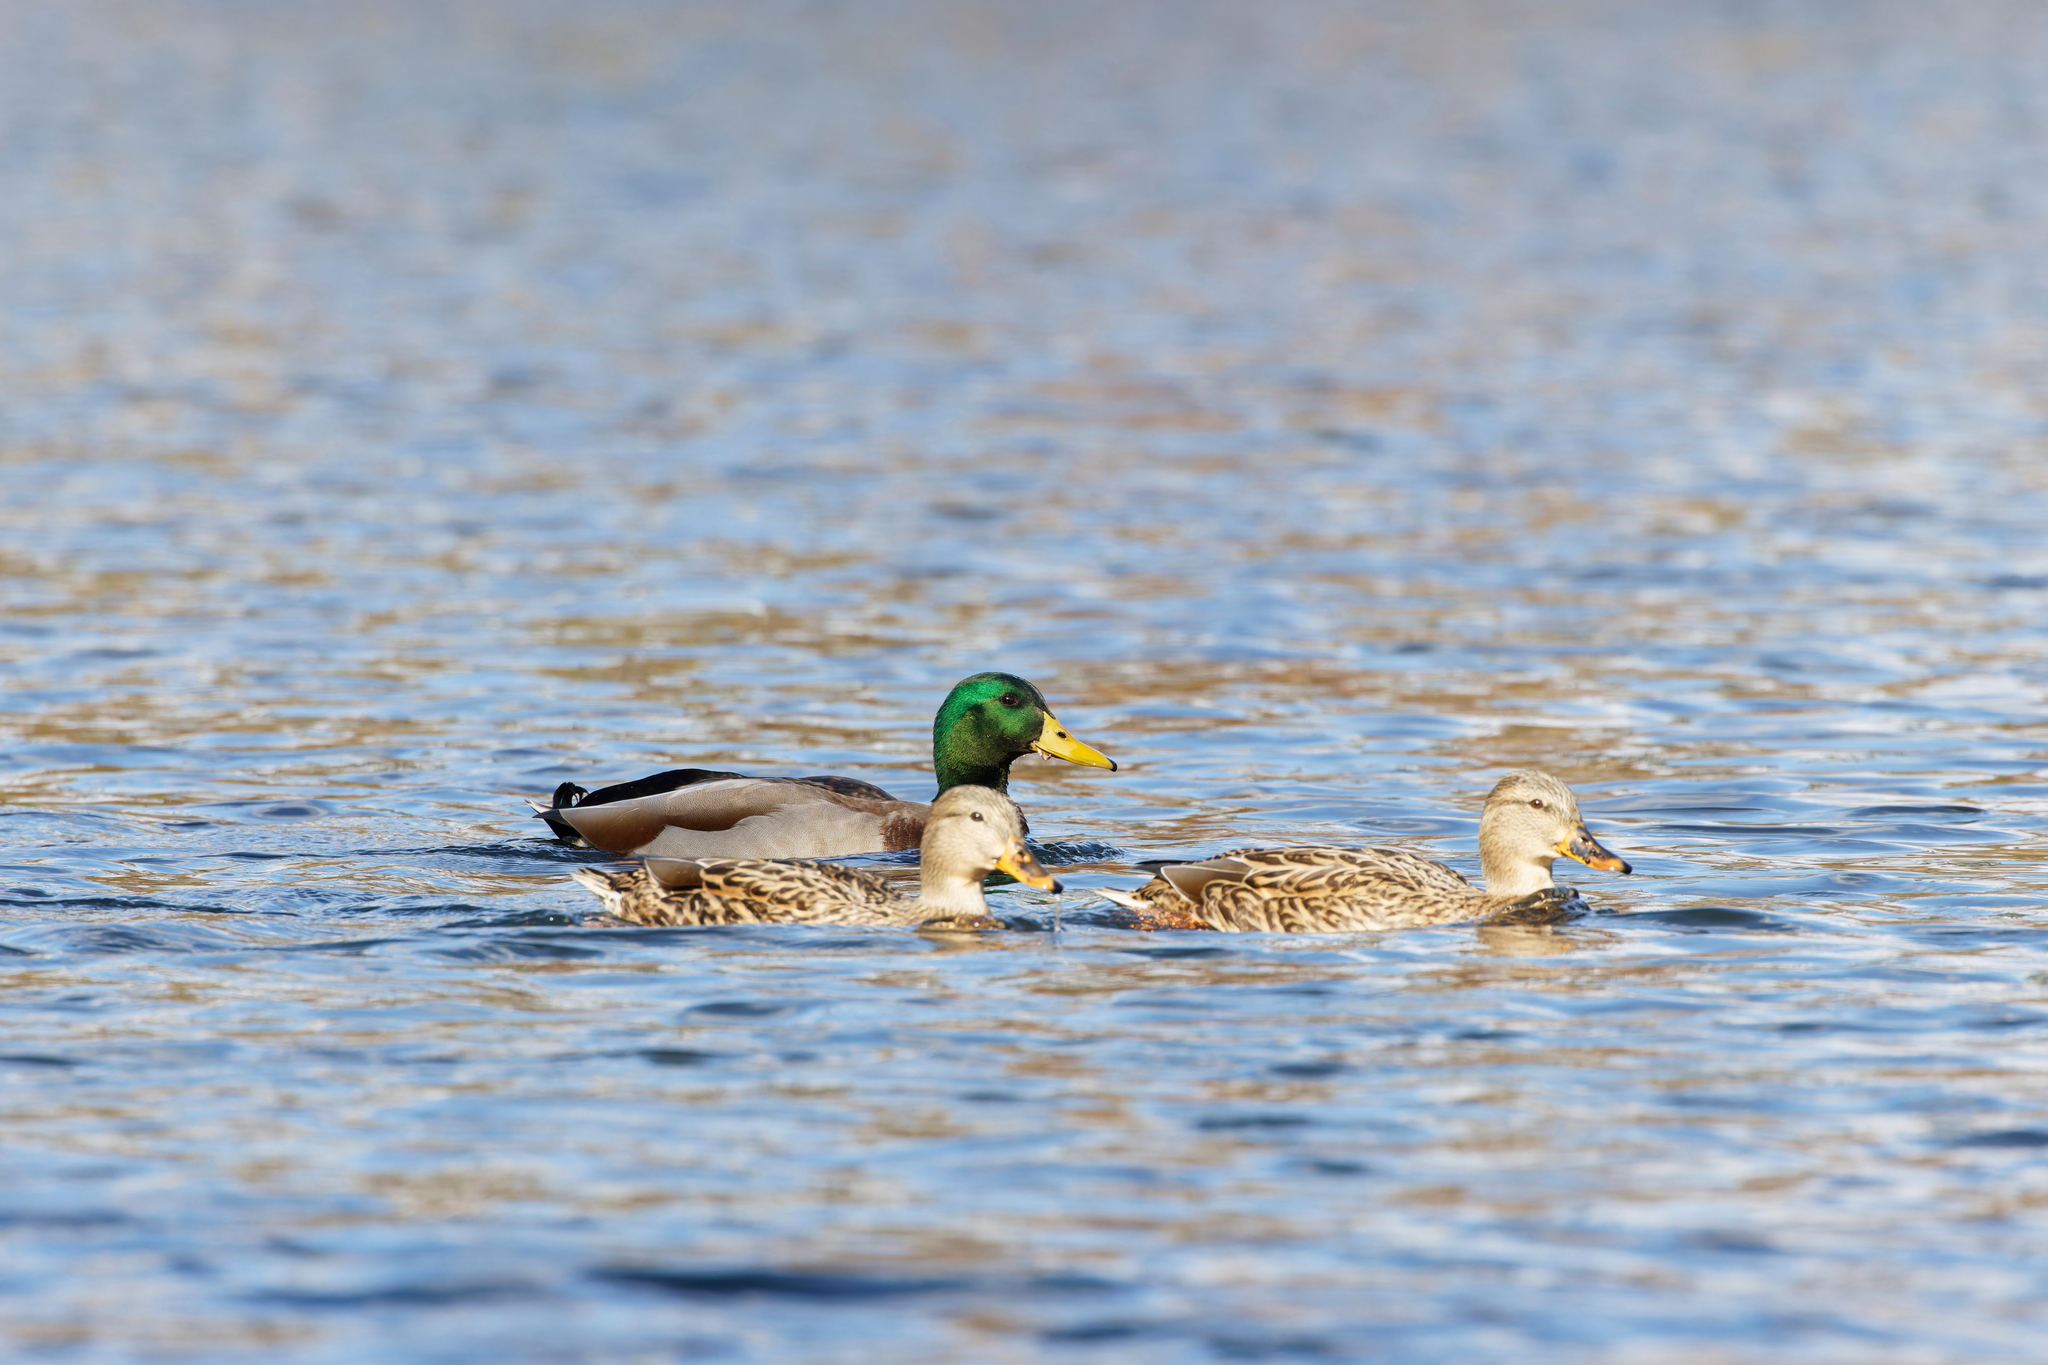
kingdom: Animalia
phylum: Chordata
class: Aves
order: Anseriformes
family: Anatidae
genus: Anas
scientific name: Anas platyrhynchos
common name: Mallard
